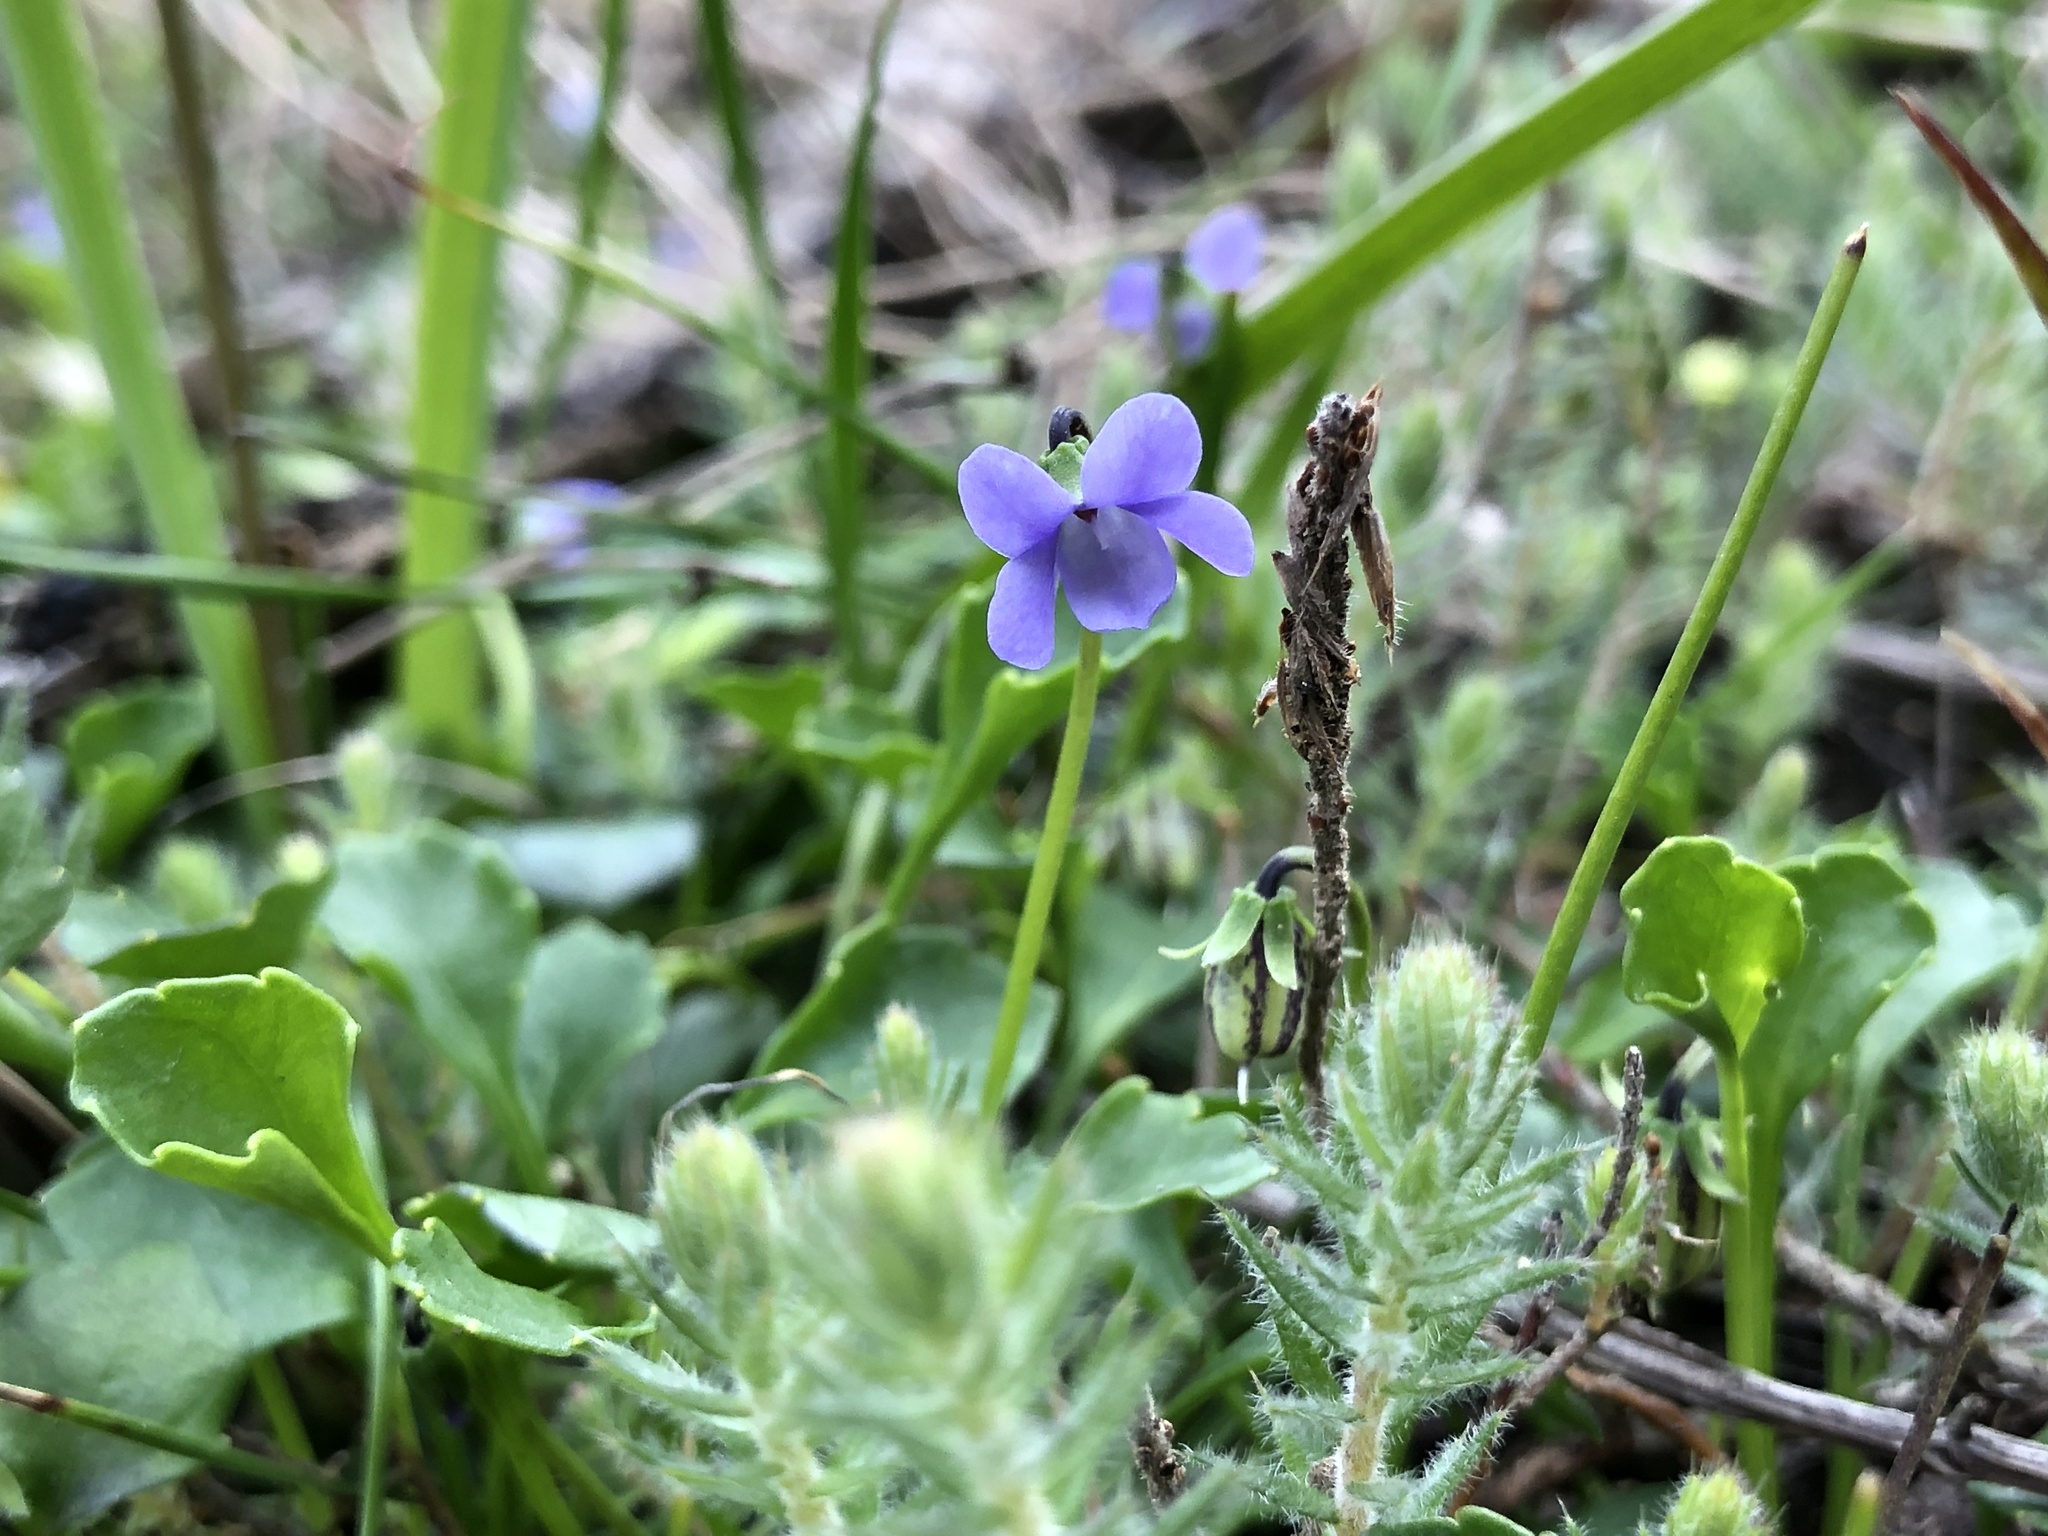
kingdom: Plantae
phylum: Tracheophyta
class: Magnoliopsida
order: Malpighiales
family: Violaceae
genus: Viola
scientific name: Viola sieberiana
